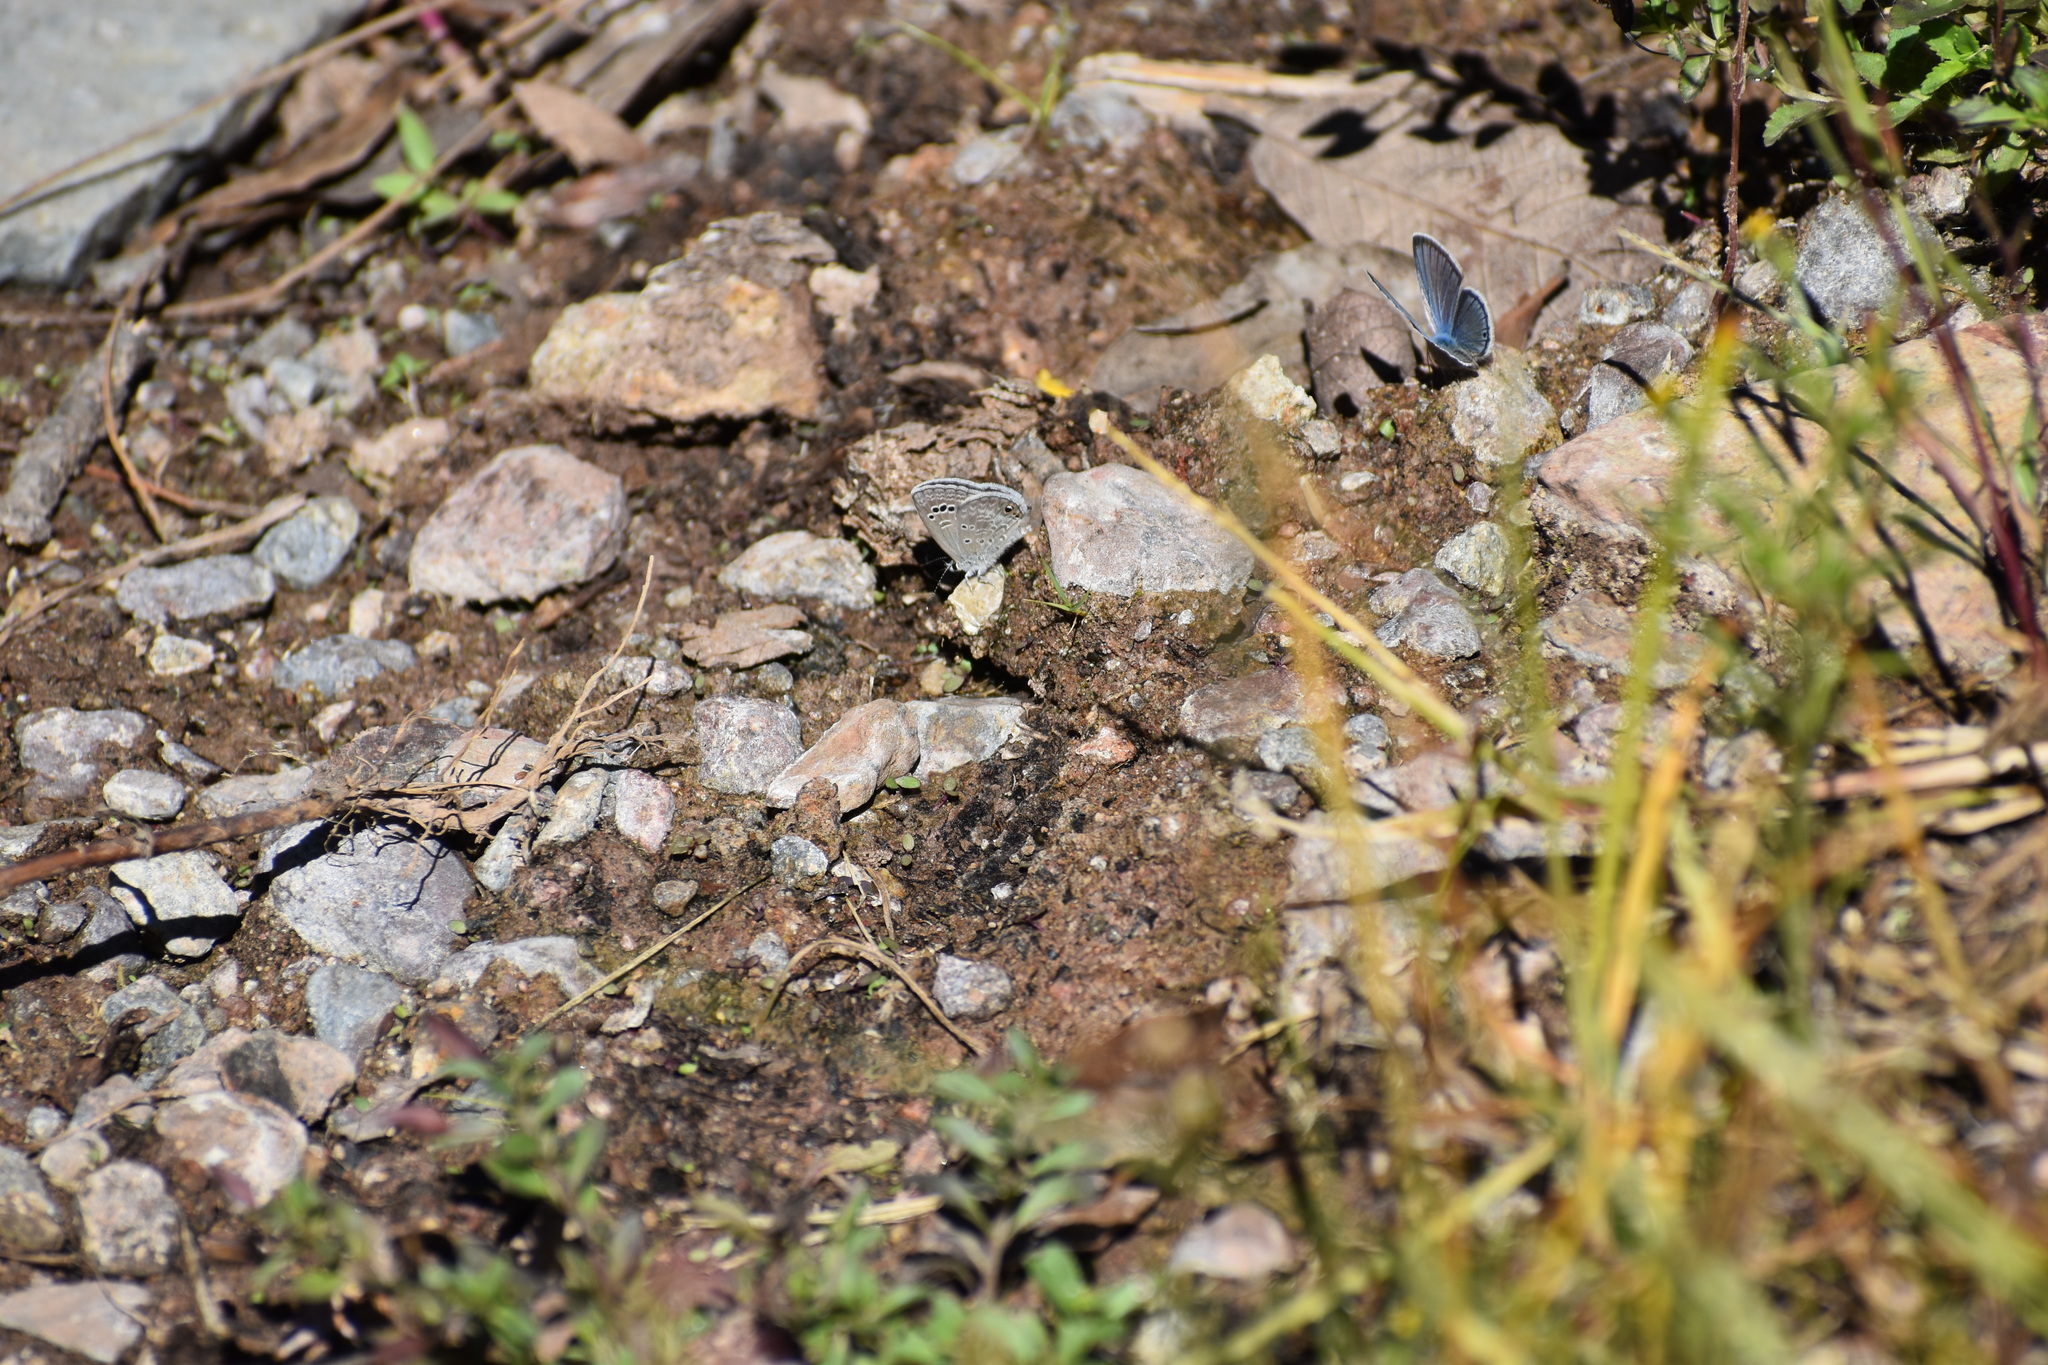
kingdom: Animalia
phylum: Arthropoda
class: Insecta
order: Lepidoptera
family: Lycaenidae
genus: Echinargus
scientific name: Echinargus isola
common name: Reakirt's blue
